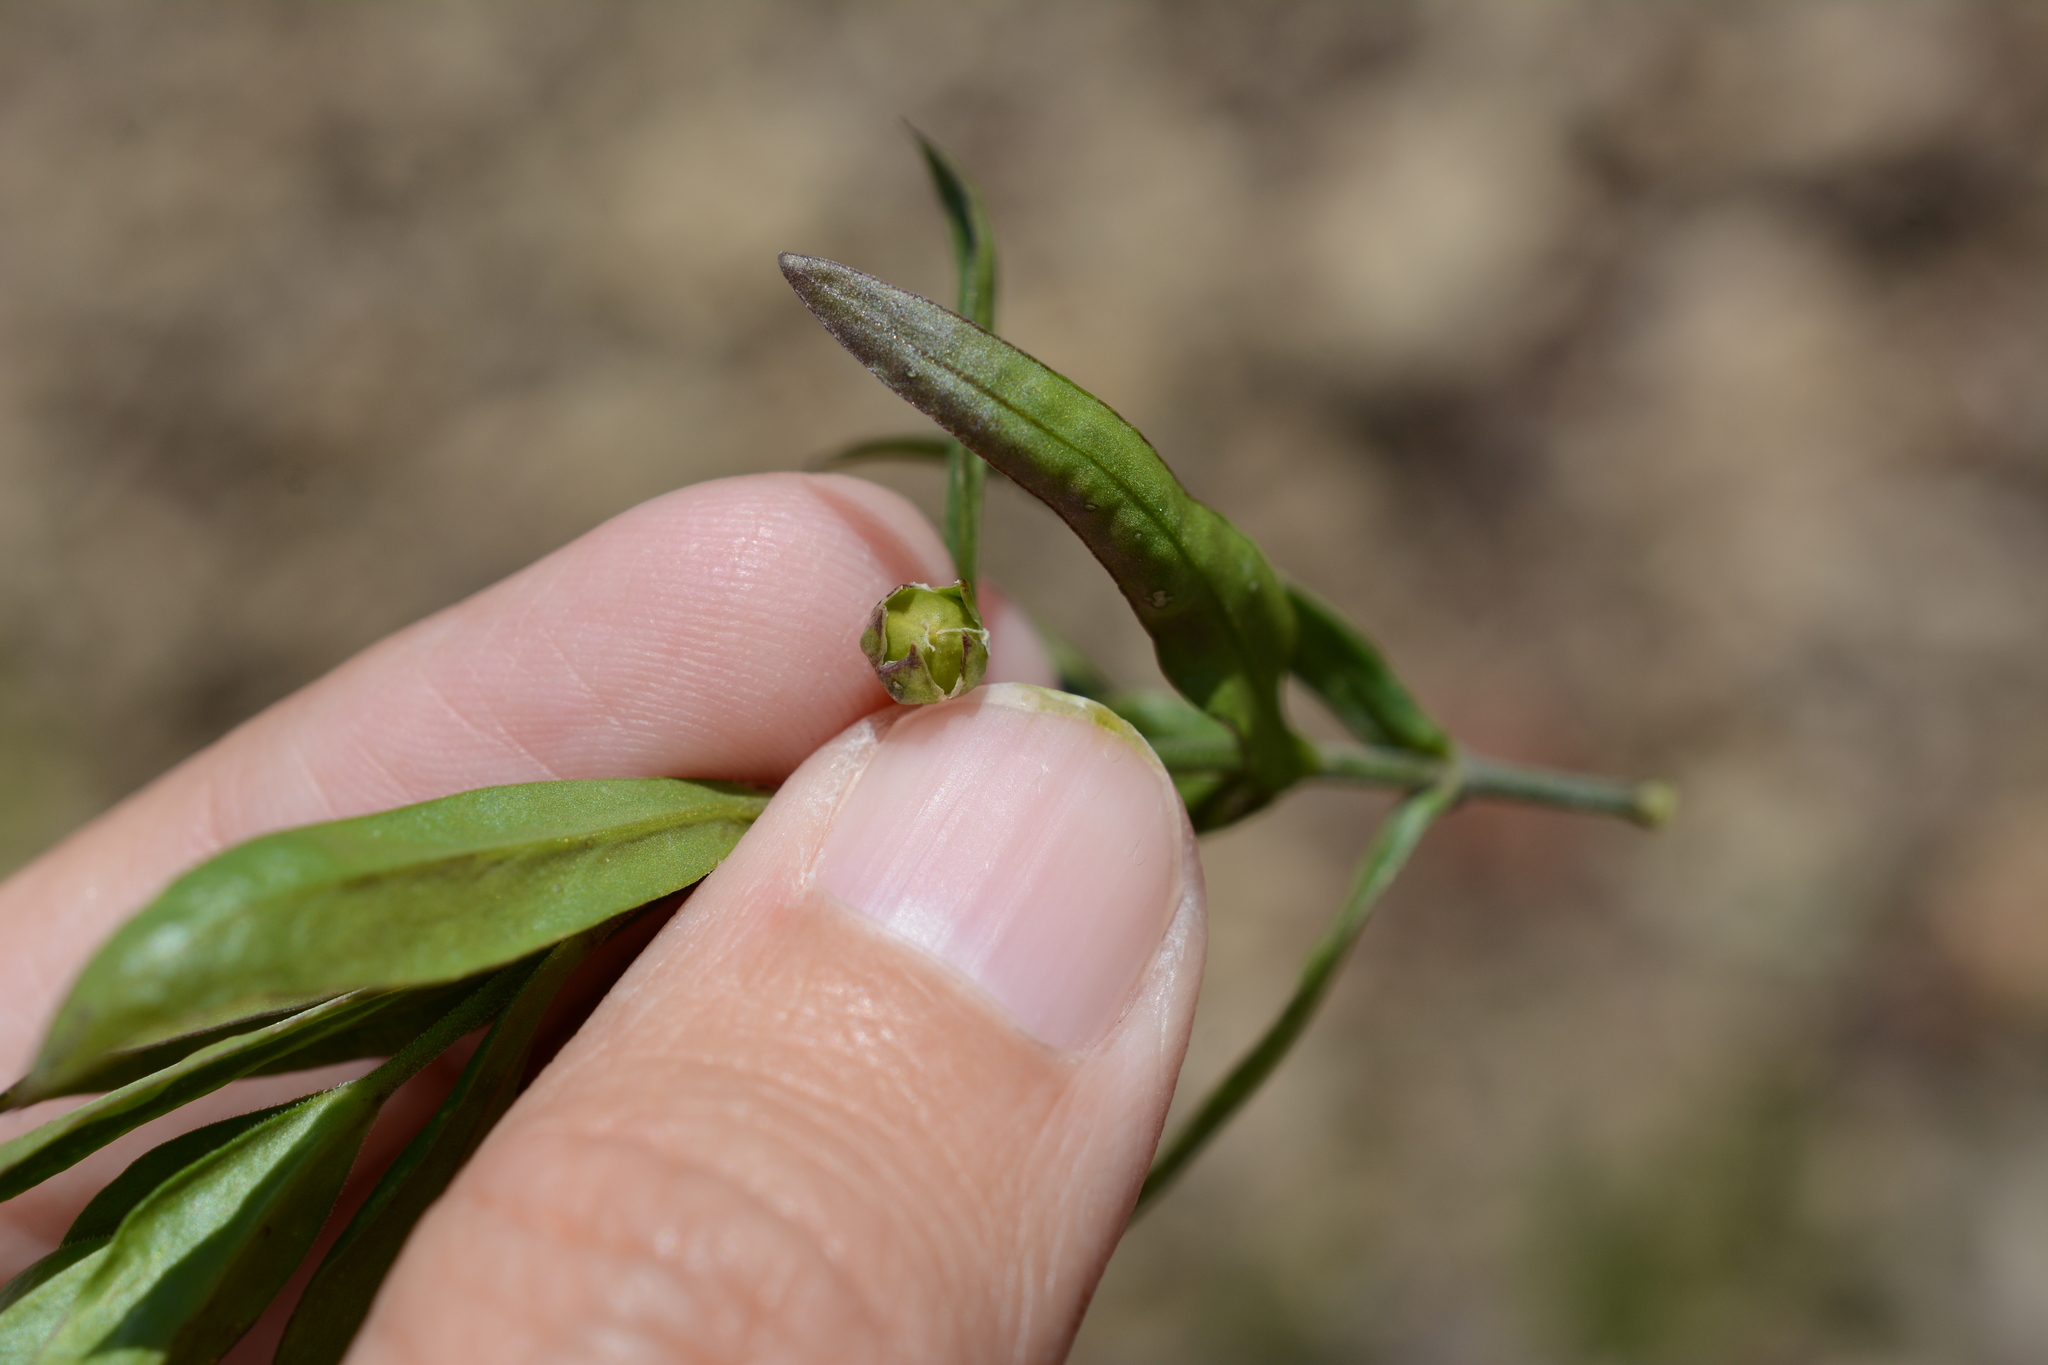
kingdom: Plantae
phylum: Tracheophyta
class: Magnoliopsida
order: Caryophyllales
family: Caryophyllaceae
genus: Moehringia
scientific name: Moehringia macrophylla
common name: Big-leaf sandwort
